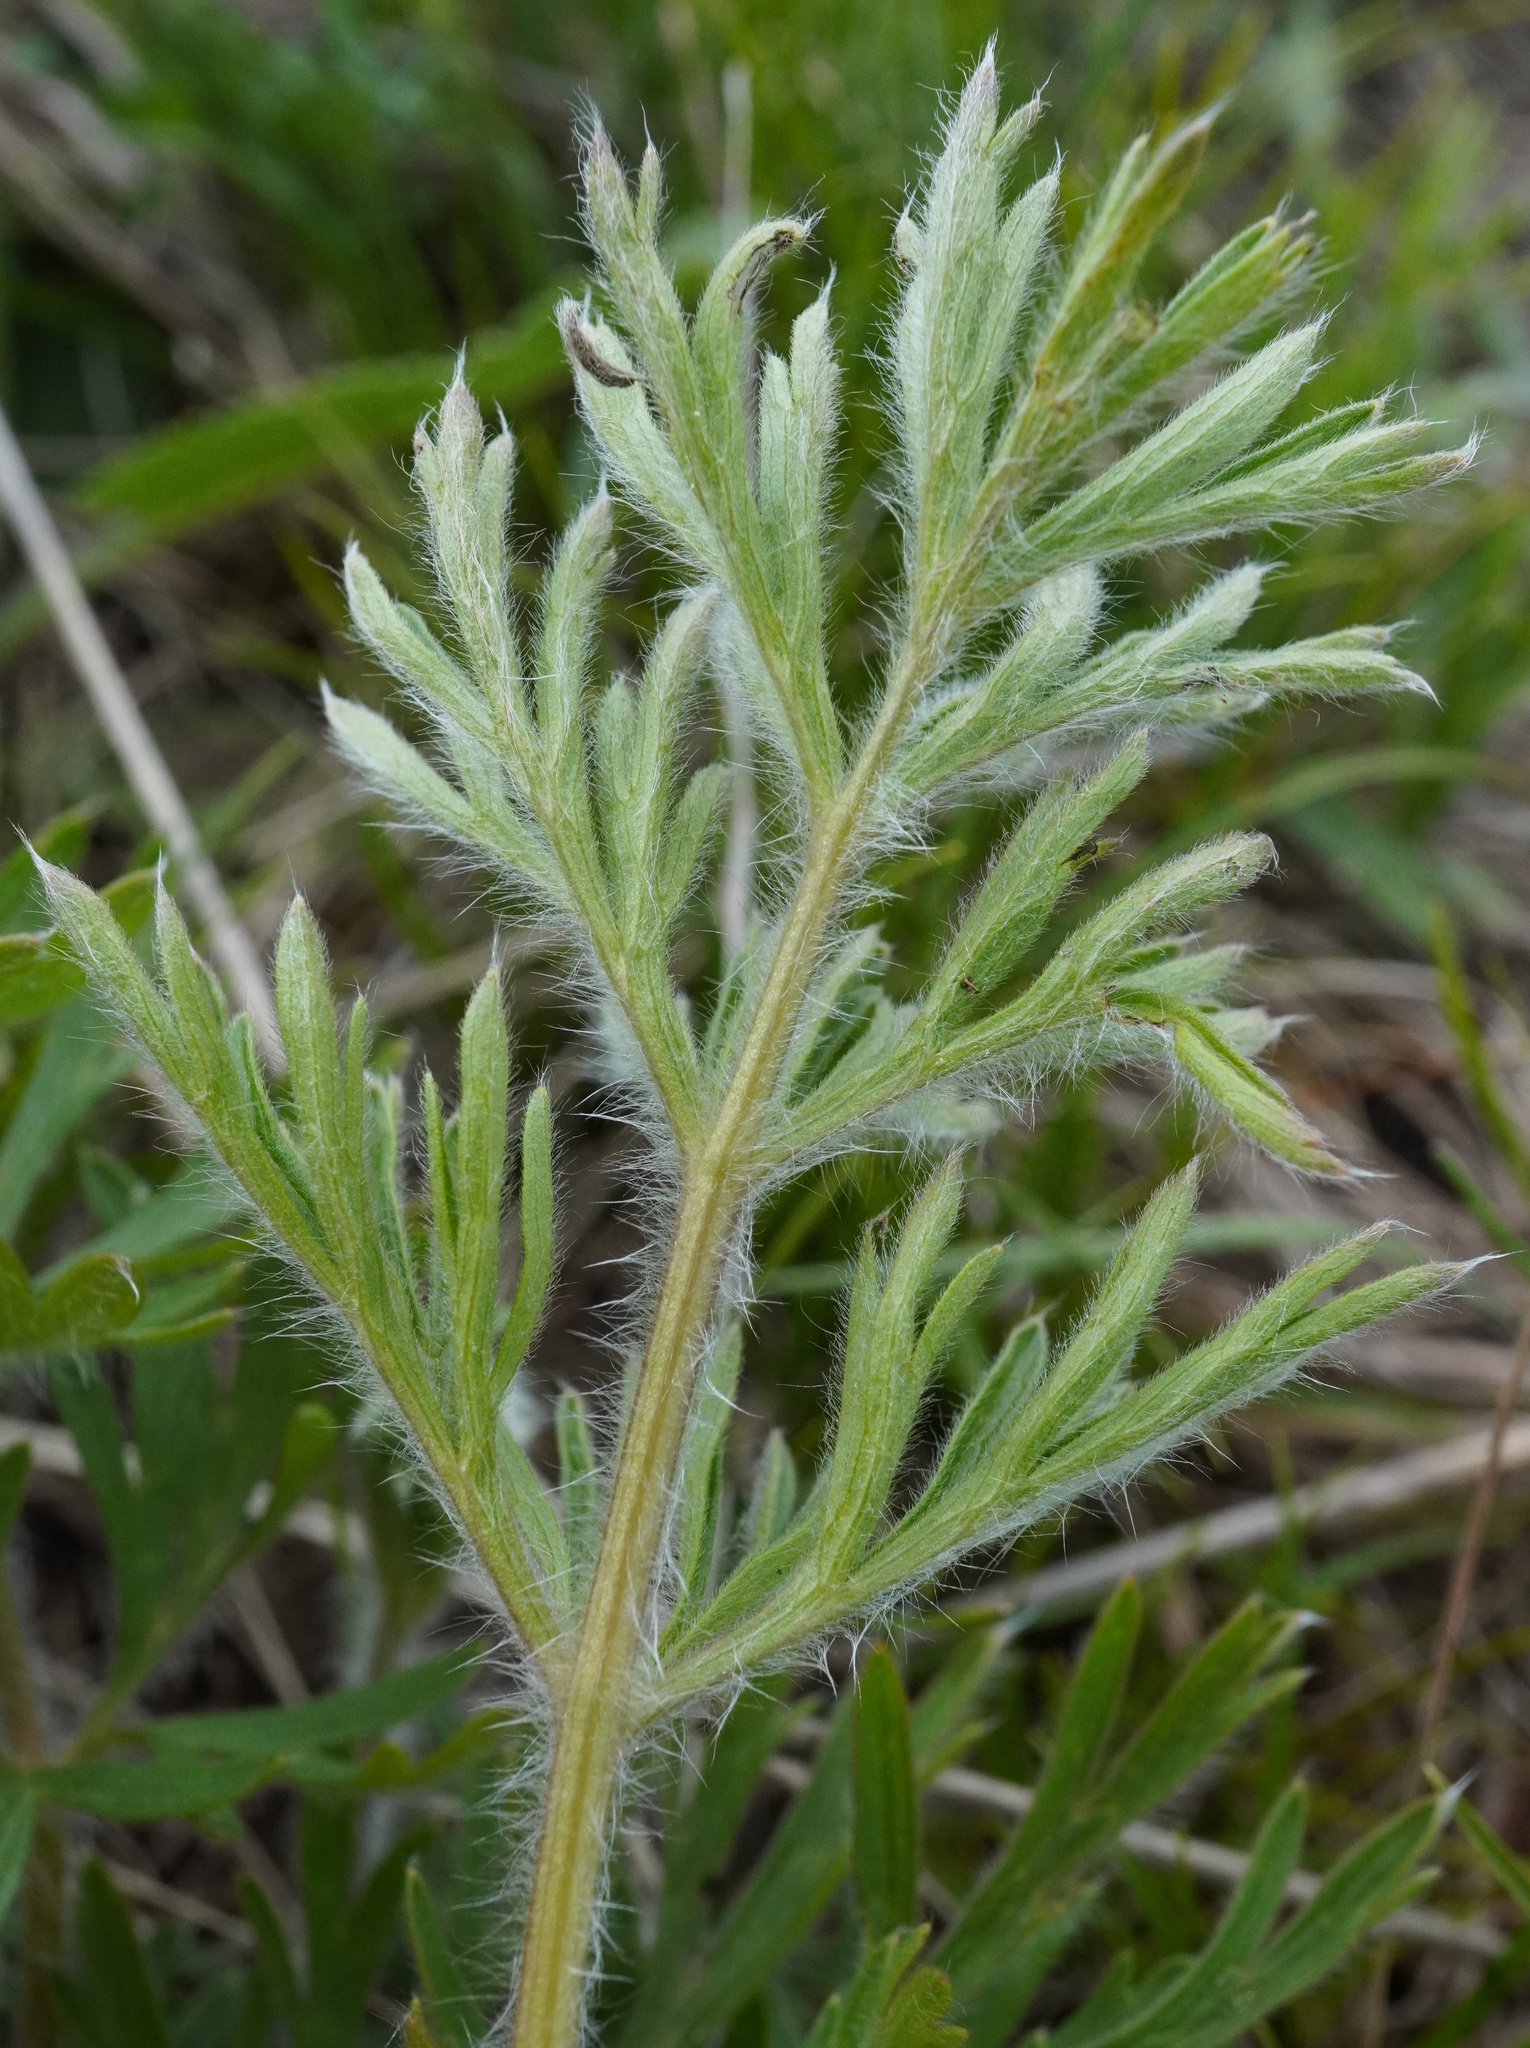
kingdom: Plantae
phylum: Tracheophyta
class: Magnoliopsida
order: Ranunculales
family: Ranunculaceae
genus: Pulsatilla
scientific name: Pulsatilla grandis
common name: Greater pasque flower
